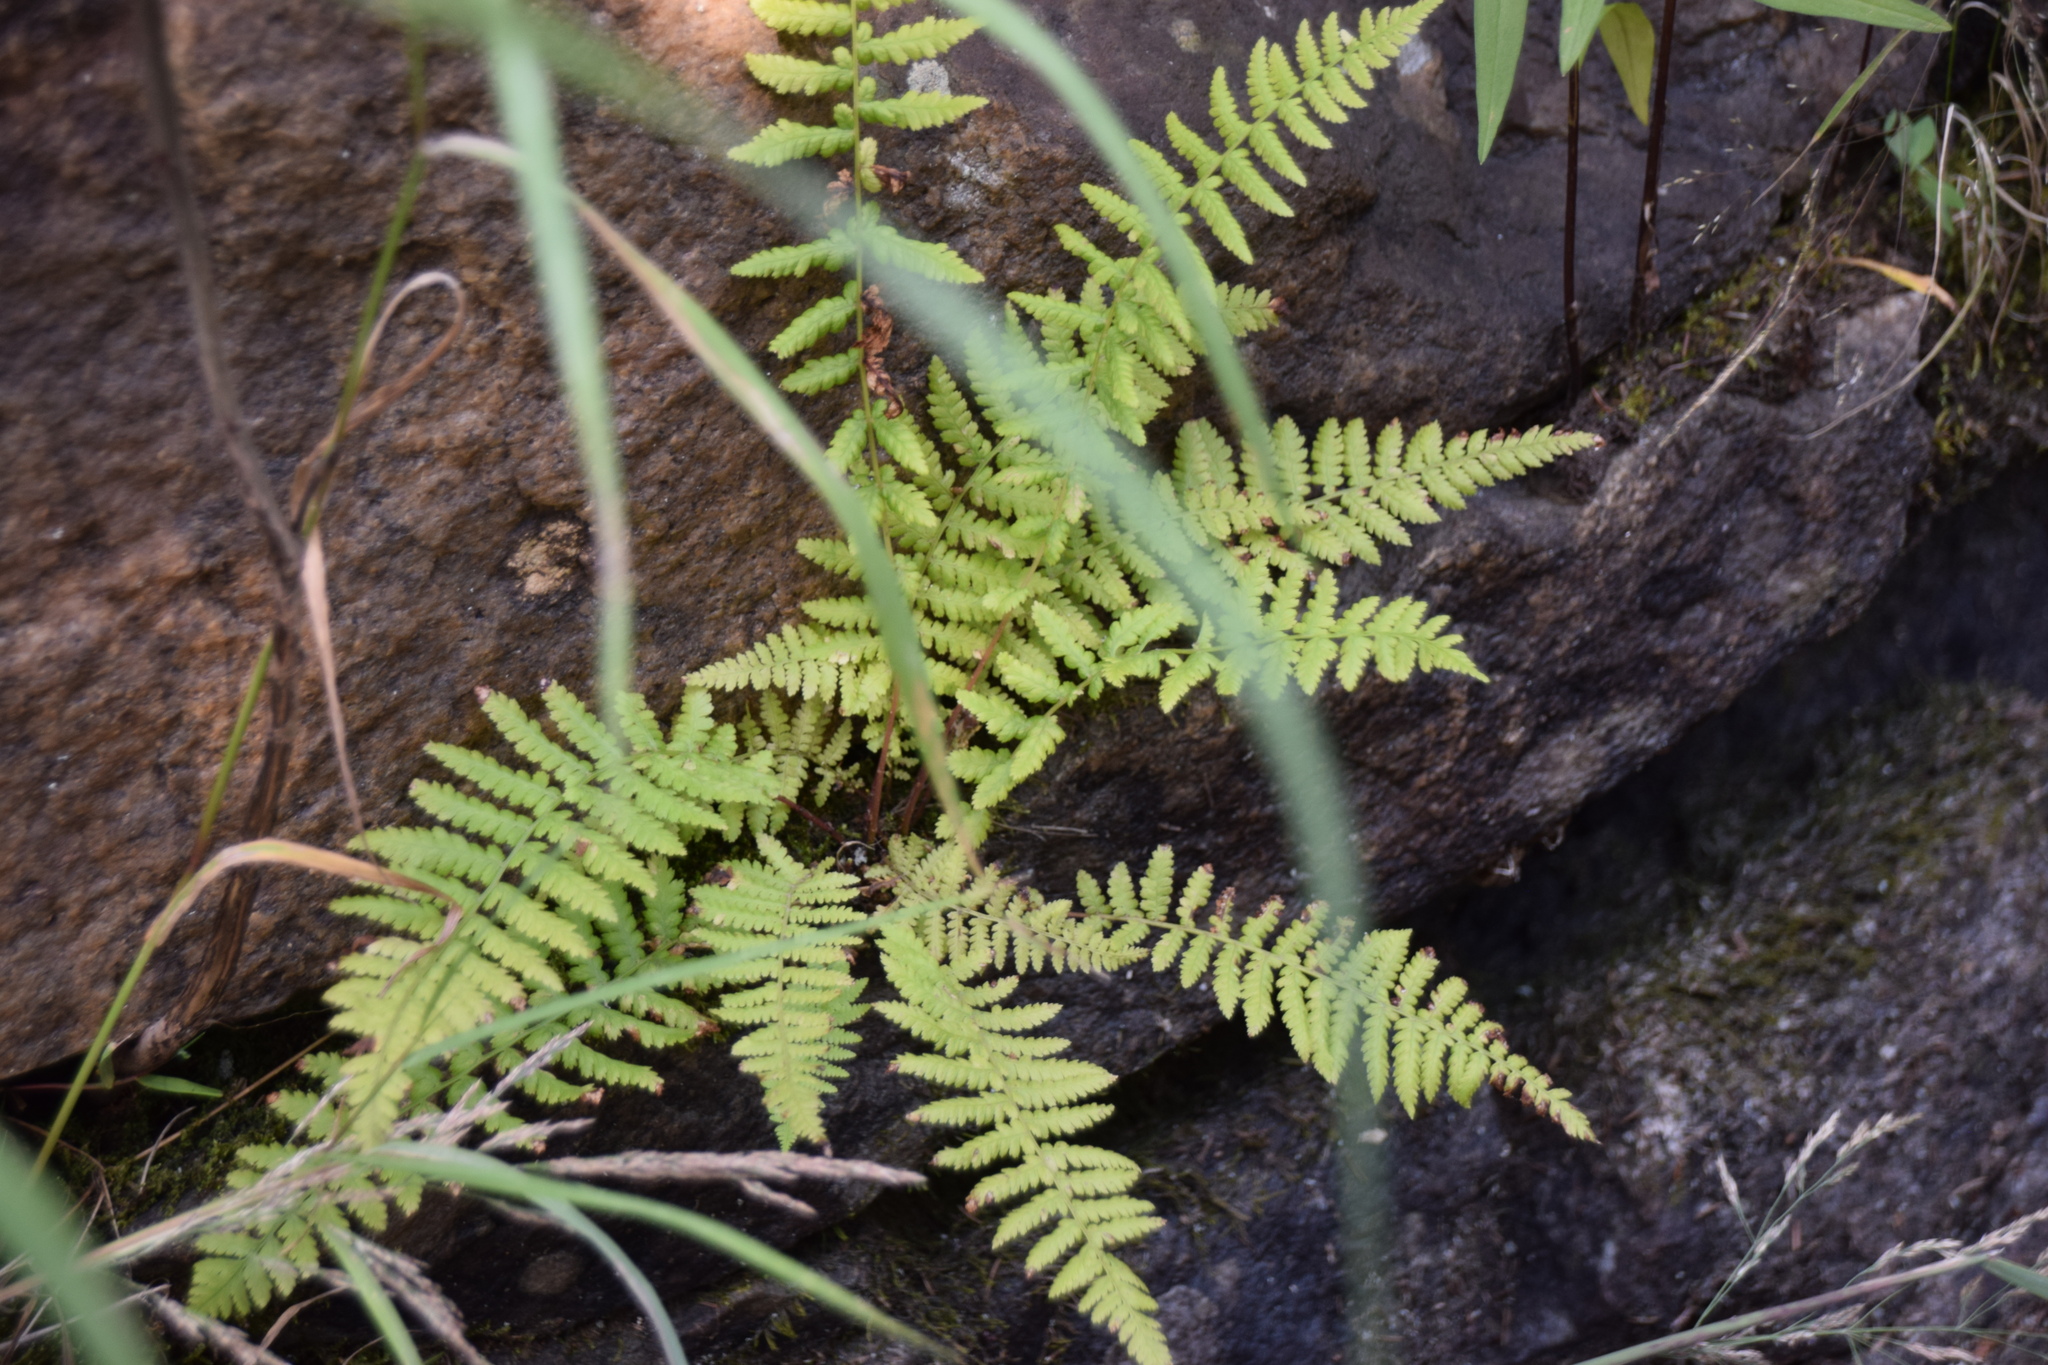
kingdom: Plantae
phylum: Tracheophyta
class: Polypodiopsida
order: Polypodiales
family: Athyriaceae
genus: Athyrium
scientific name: Athyrium angustum
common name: Northern lady fern
